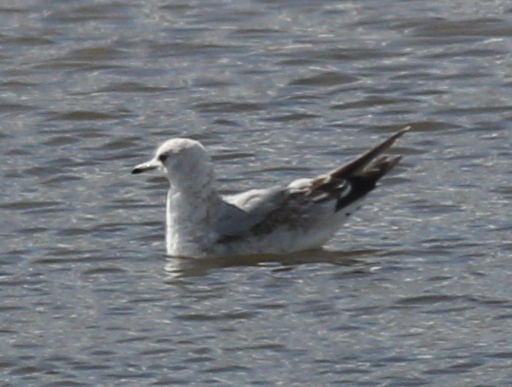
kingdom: Animalia
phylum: Chordata
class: Aves
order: Charadriiformes
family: Laridae
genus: Larus
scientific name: Larus canus
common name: Mew gull
